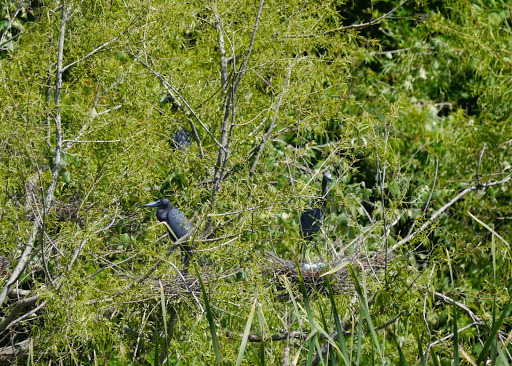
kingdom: Animalia
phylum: Chordata
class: Aves
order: Pelecaniformes
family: Ardeidae
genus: Egretta
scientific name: Egretta caerulea
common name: Little blue heron
